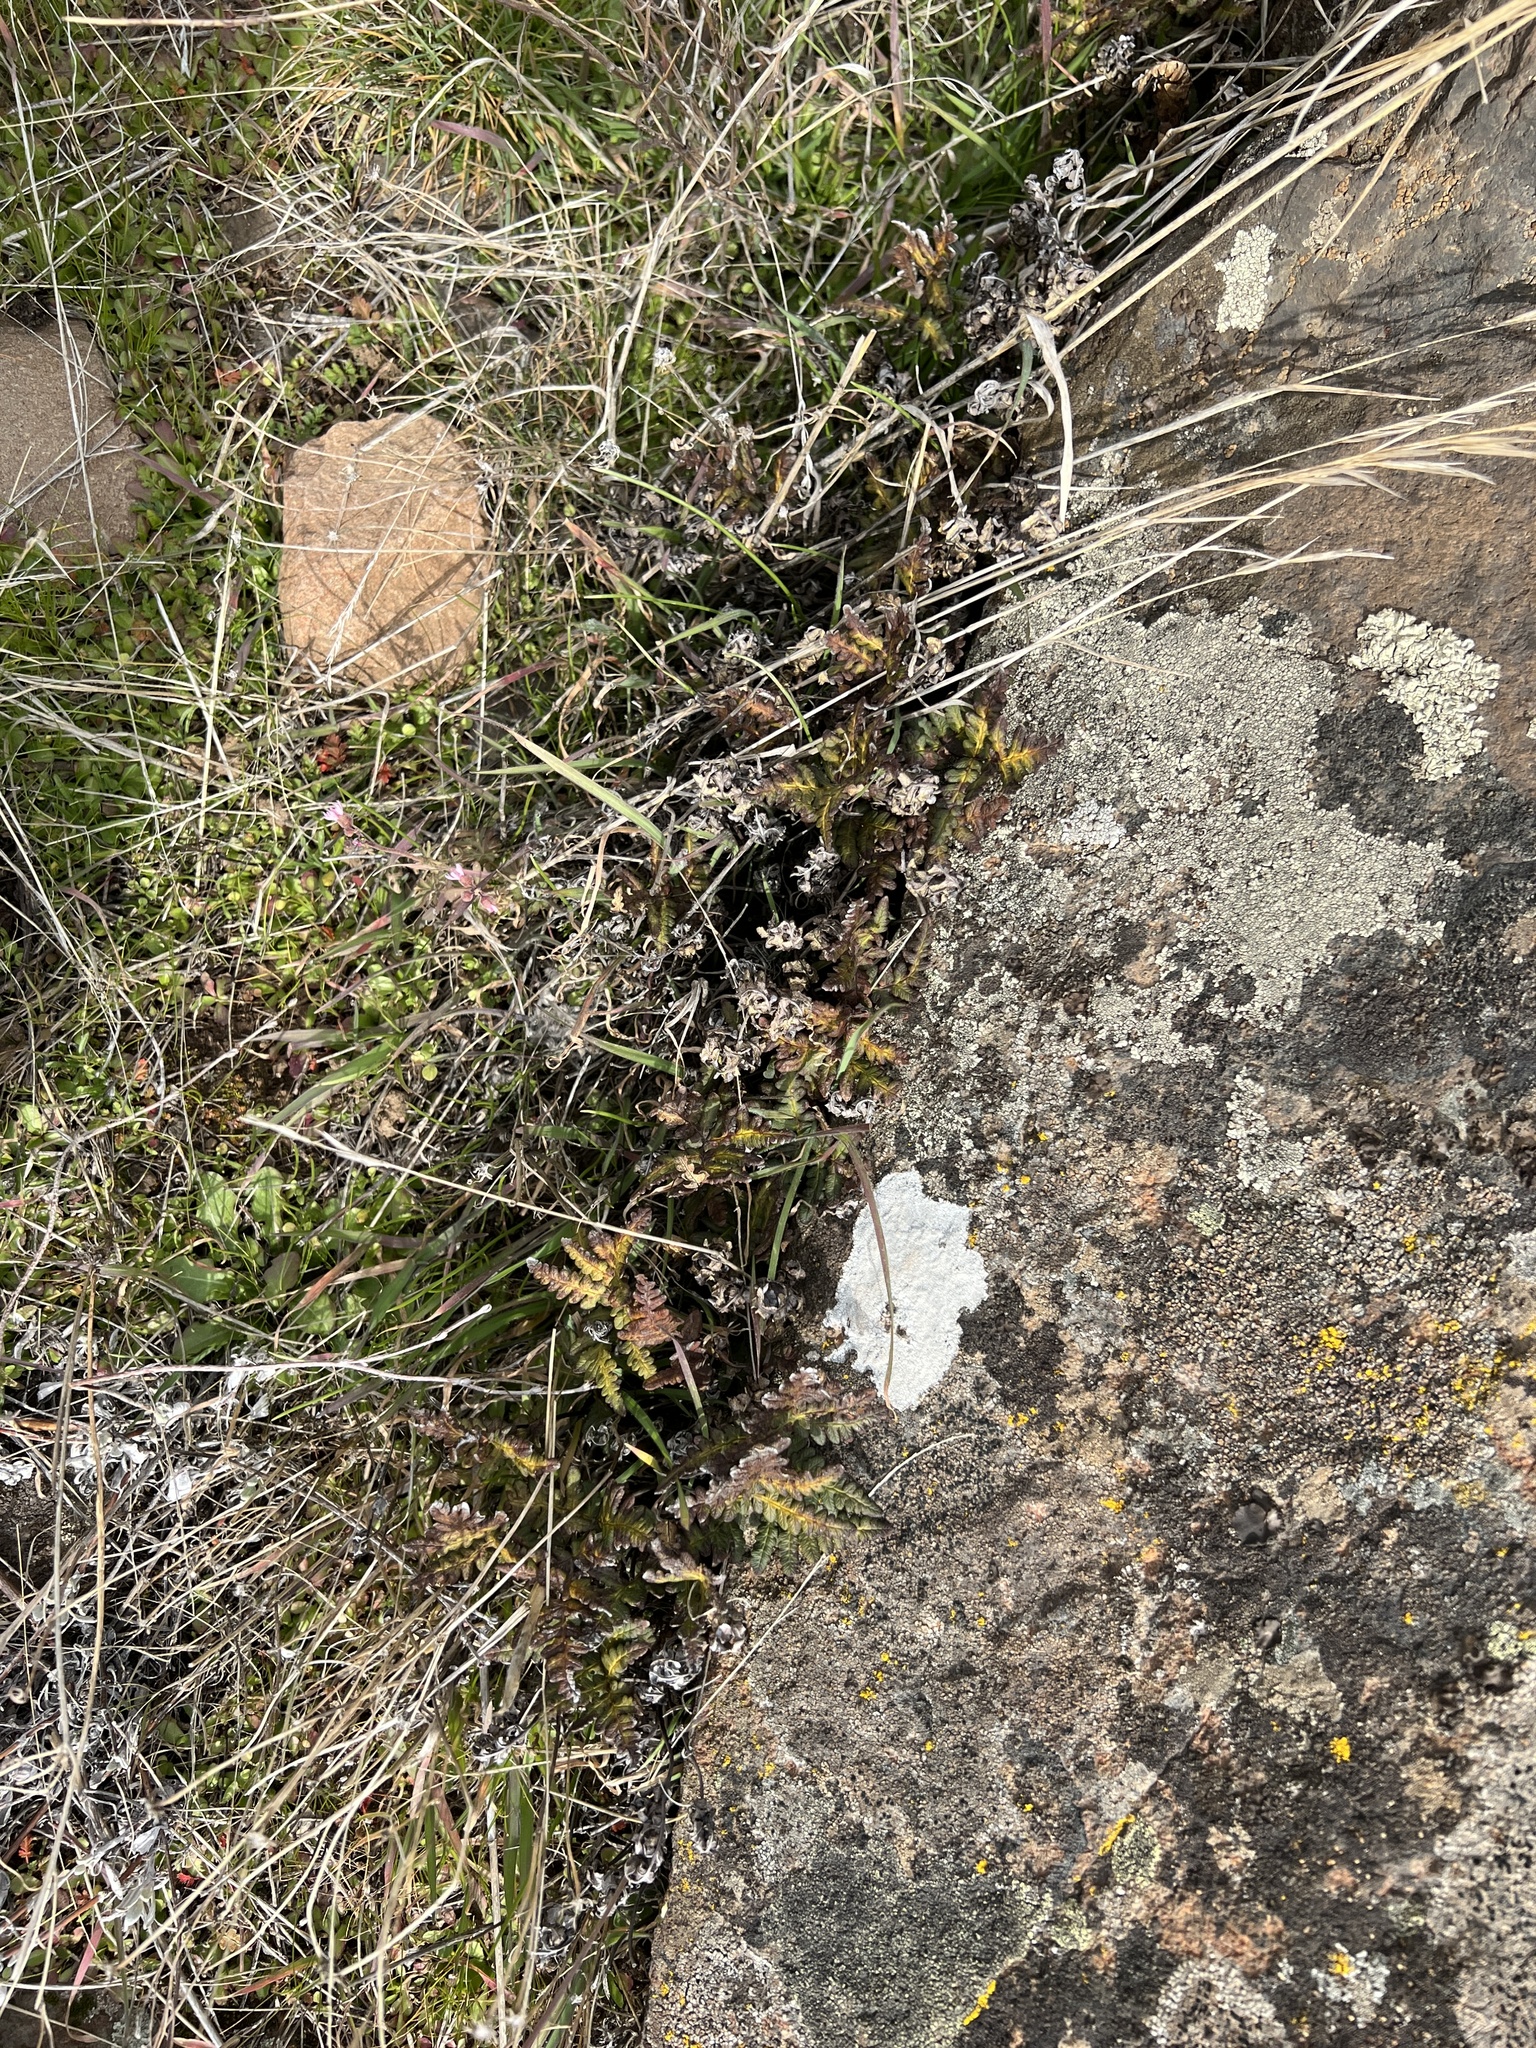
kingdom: Plantae
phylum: Tracheophyta
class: Polypodiopsida
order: Polypodiales
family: Pteridaceae
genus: Pentagramma
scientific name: Pentagramma triangularis
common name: Gold fern
